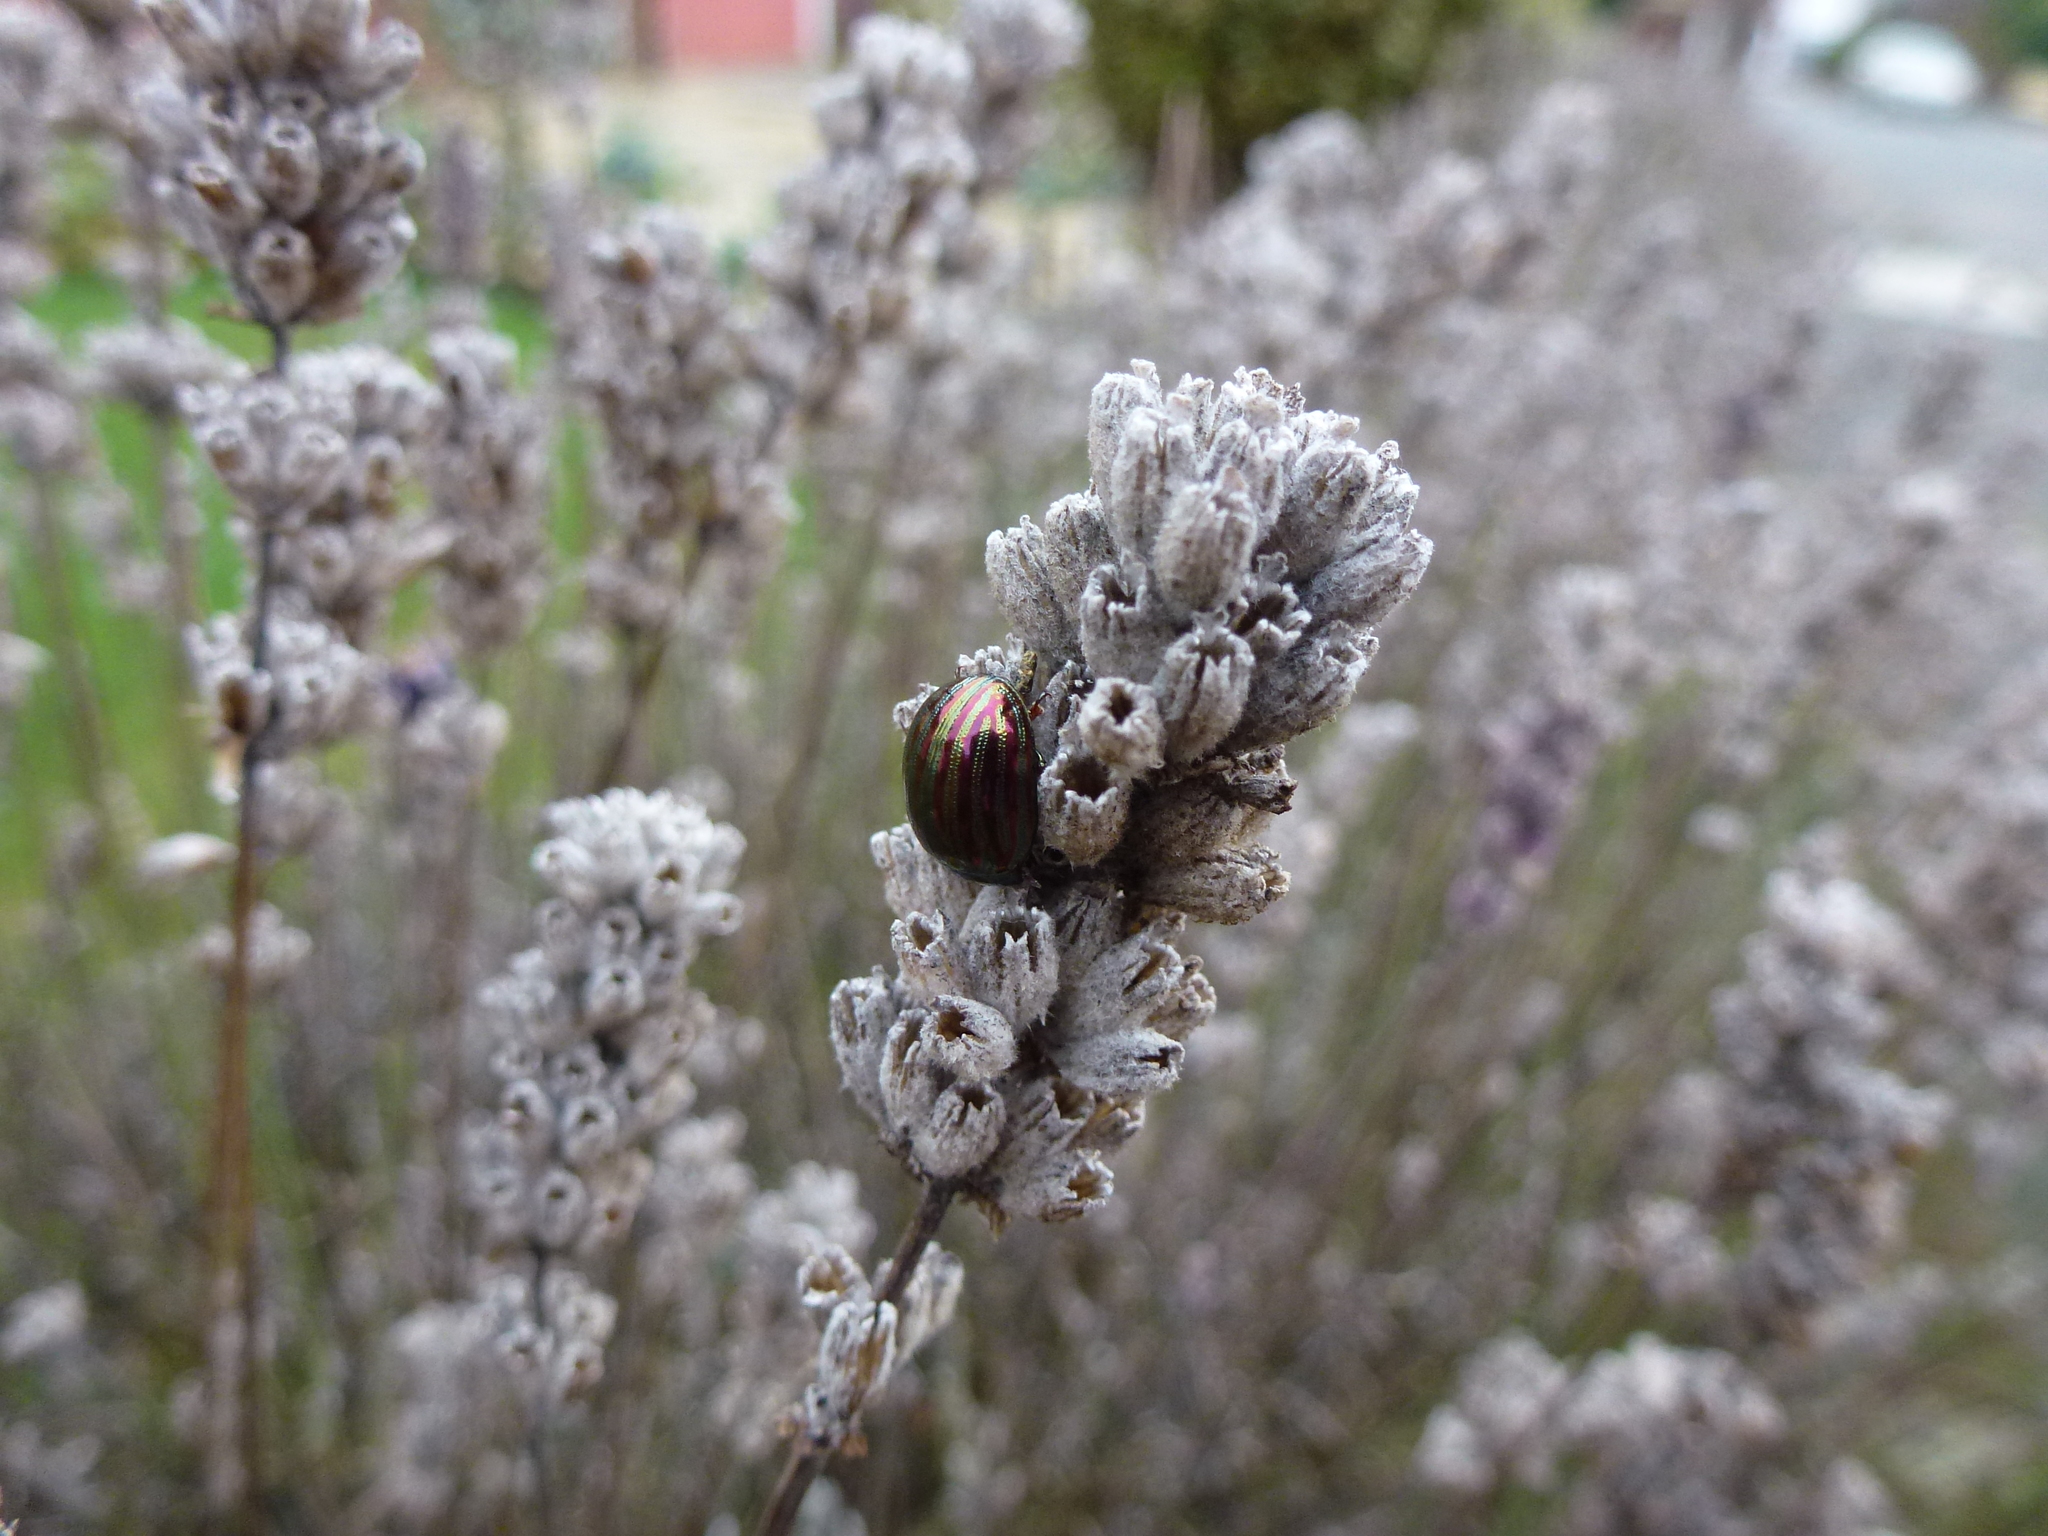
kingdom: Animalia
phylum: Arthropoda
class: Insecta
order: Coleoptera
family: Chrysomelidae
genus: Chrysolina
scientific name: Chrysolina americana
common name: Rosemary beetle
